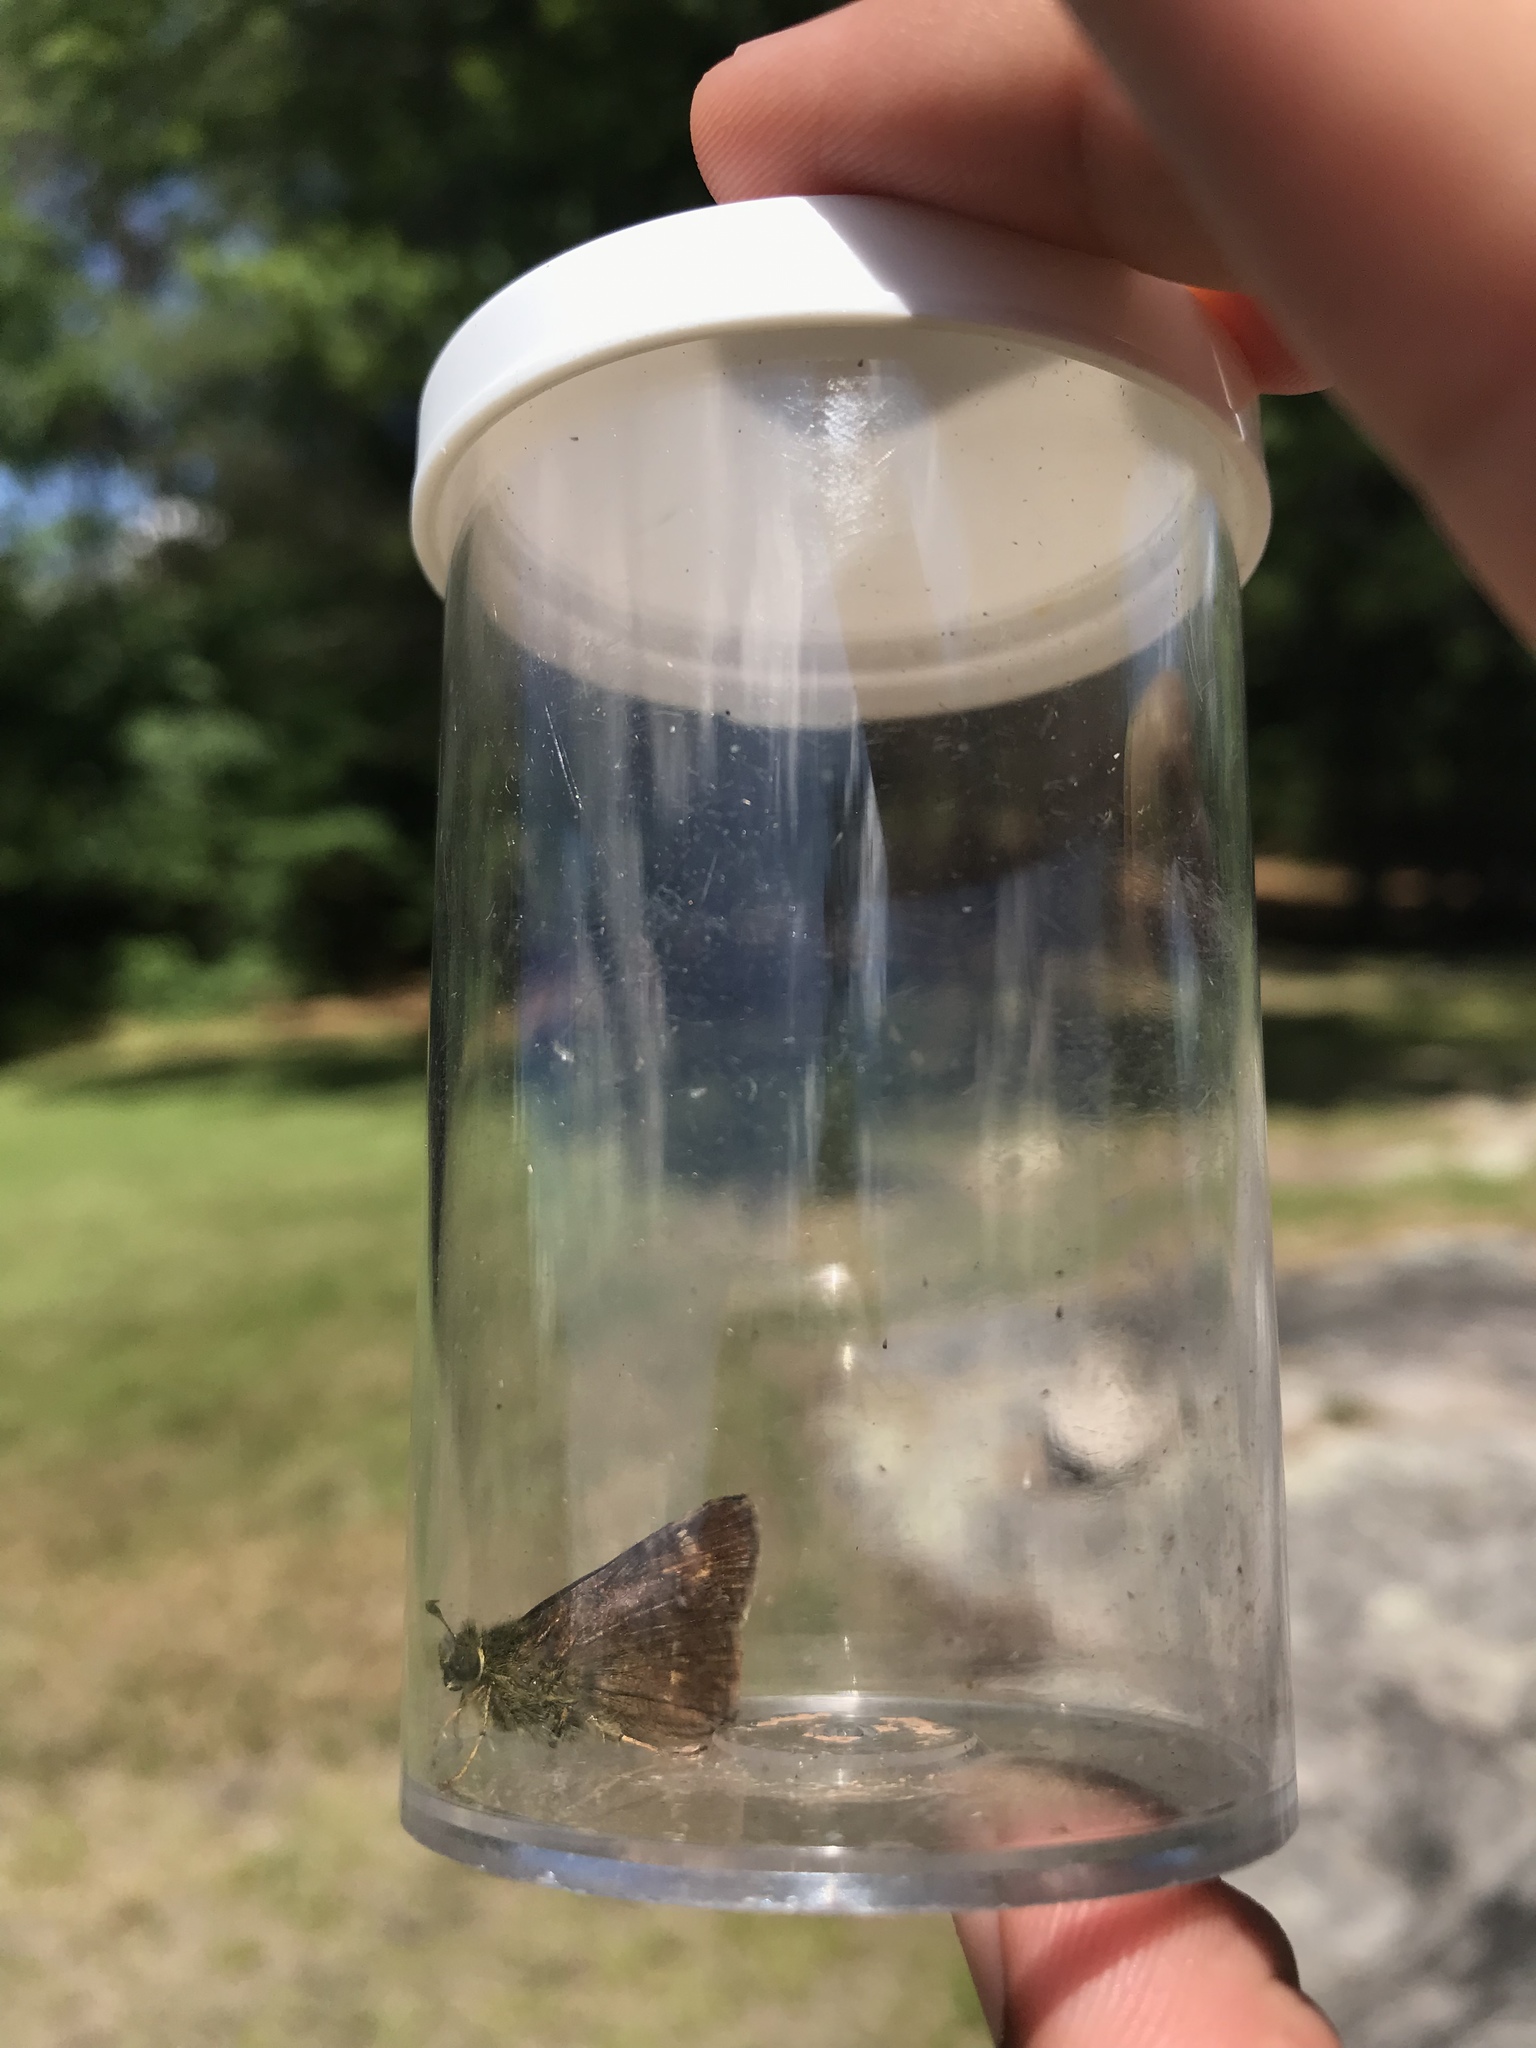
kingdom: Animalia
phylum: Arthropoda
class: Insecta
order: Lepidoptera
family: Hesperiidae
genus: Vernia
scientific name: Vernia verna
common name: Little glassywing
